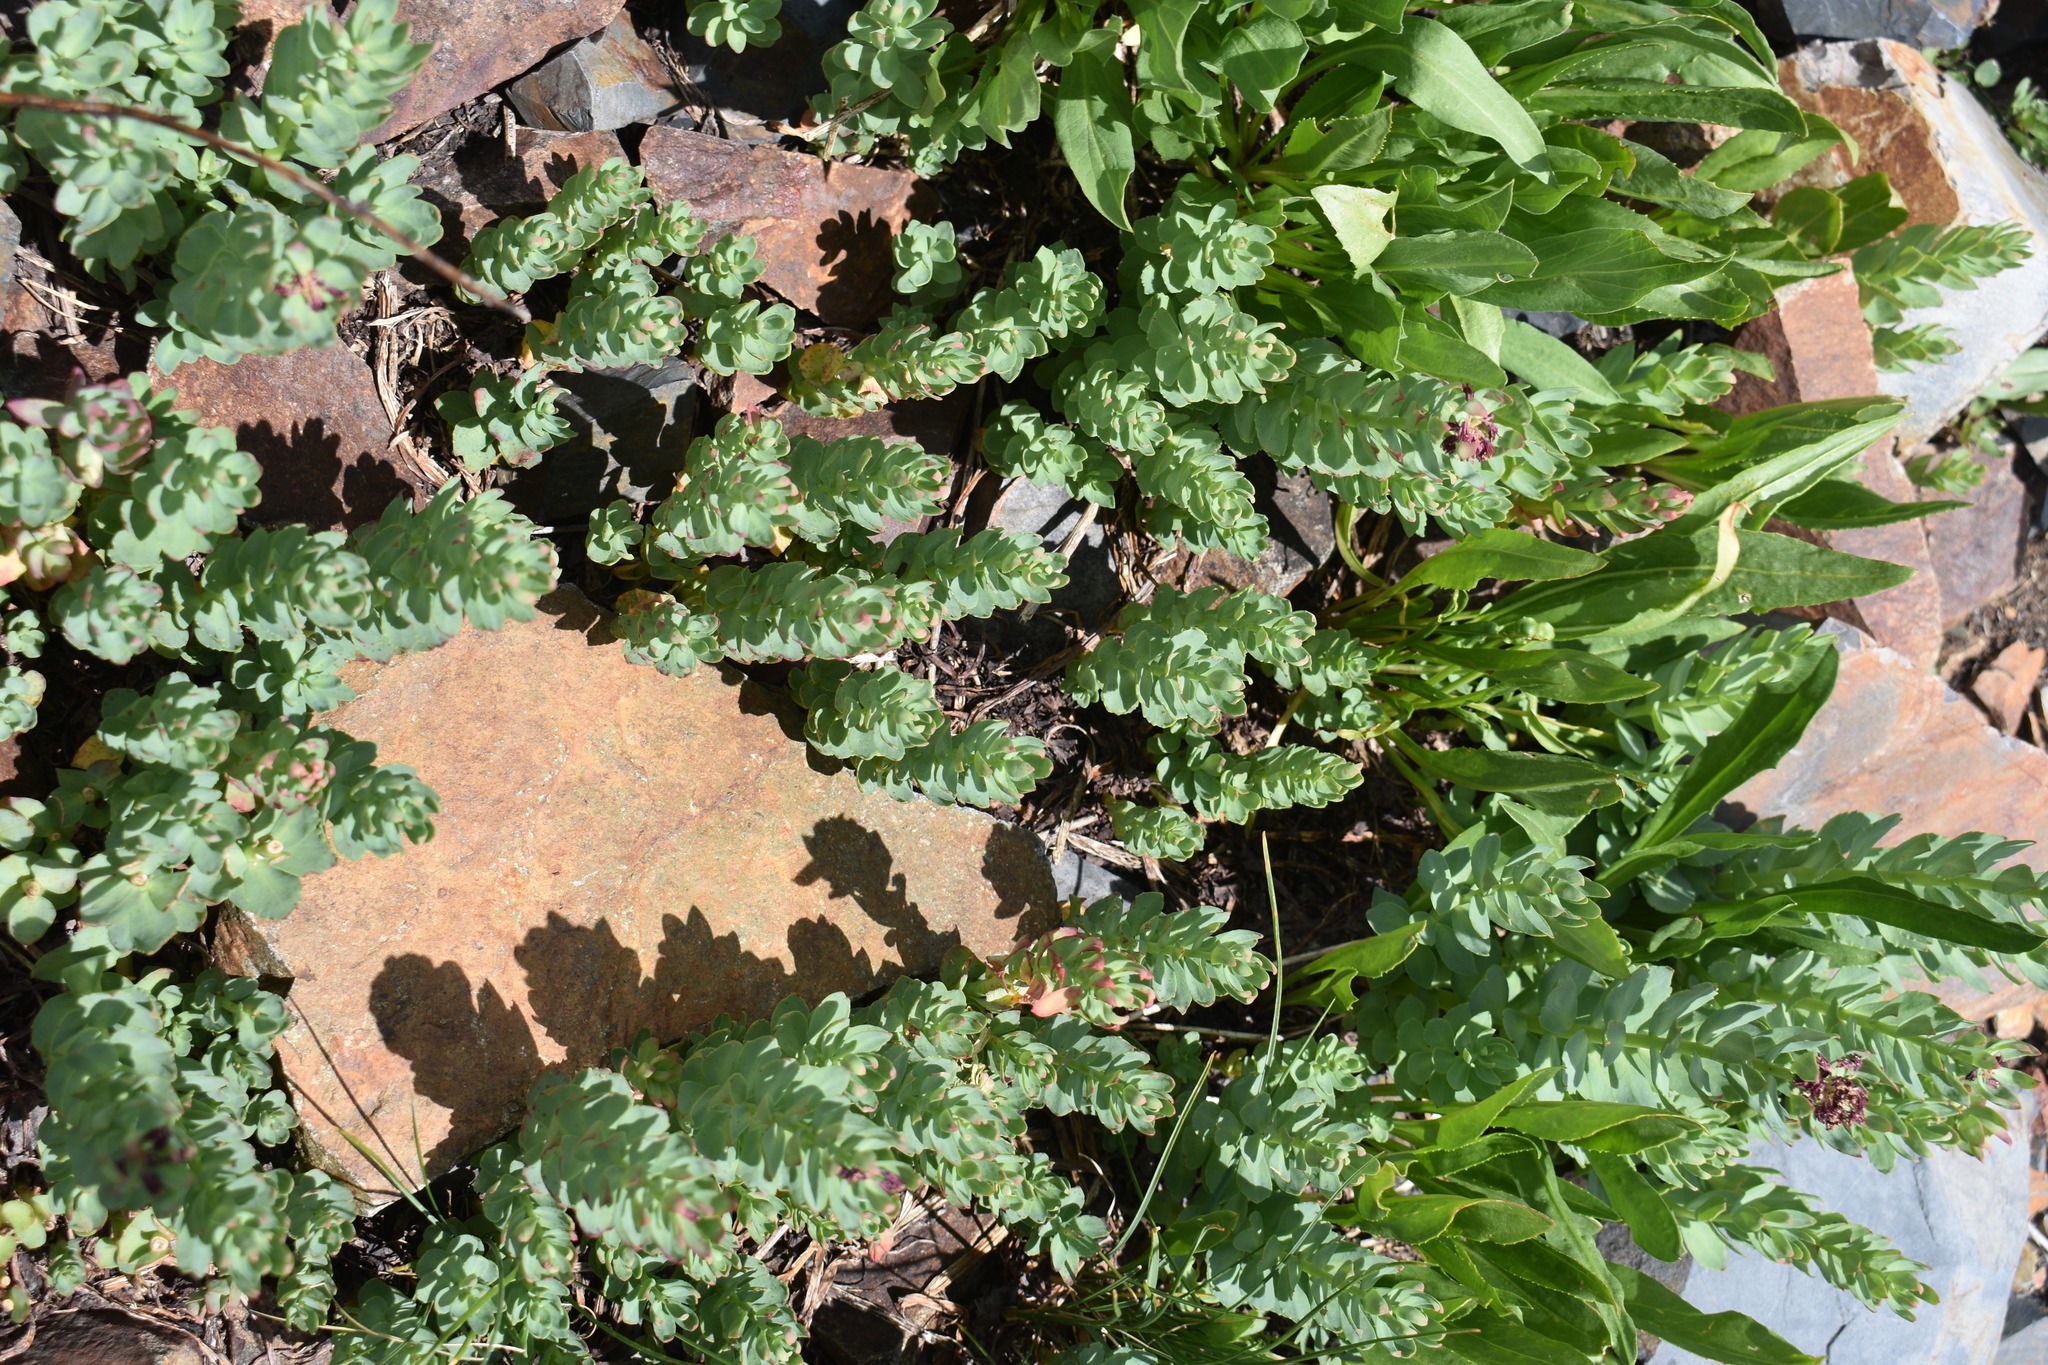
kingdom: Plantae
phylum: Tracheophyta
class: Magnoliopsida
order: Saxifragales
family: Crassulaceae
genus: Rhodiola
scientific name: Rhodiola integrifolia
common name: Western roseroot
